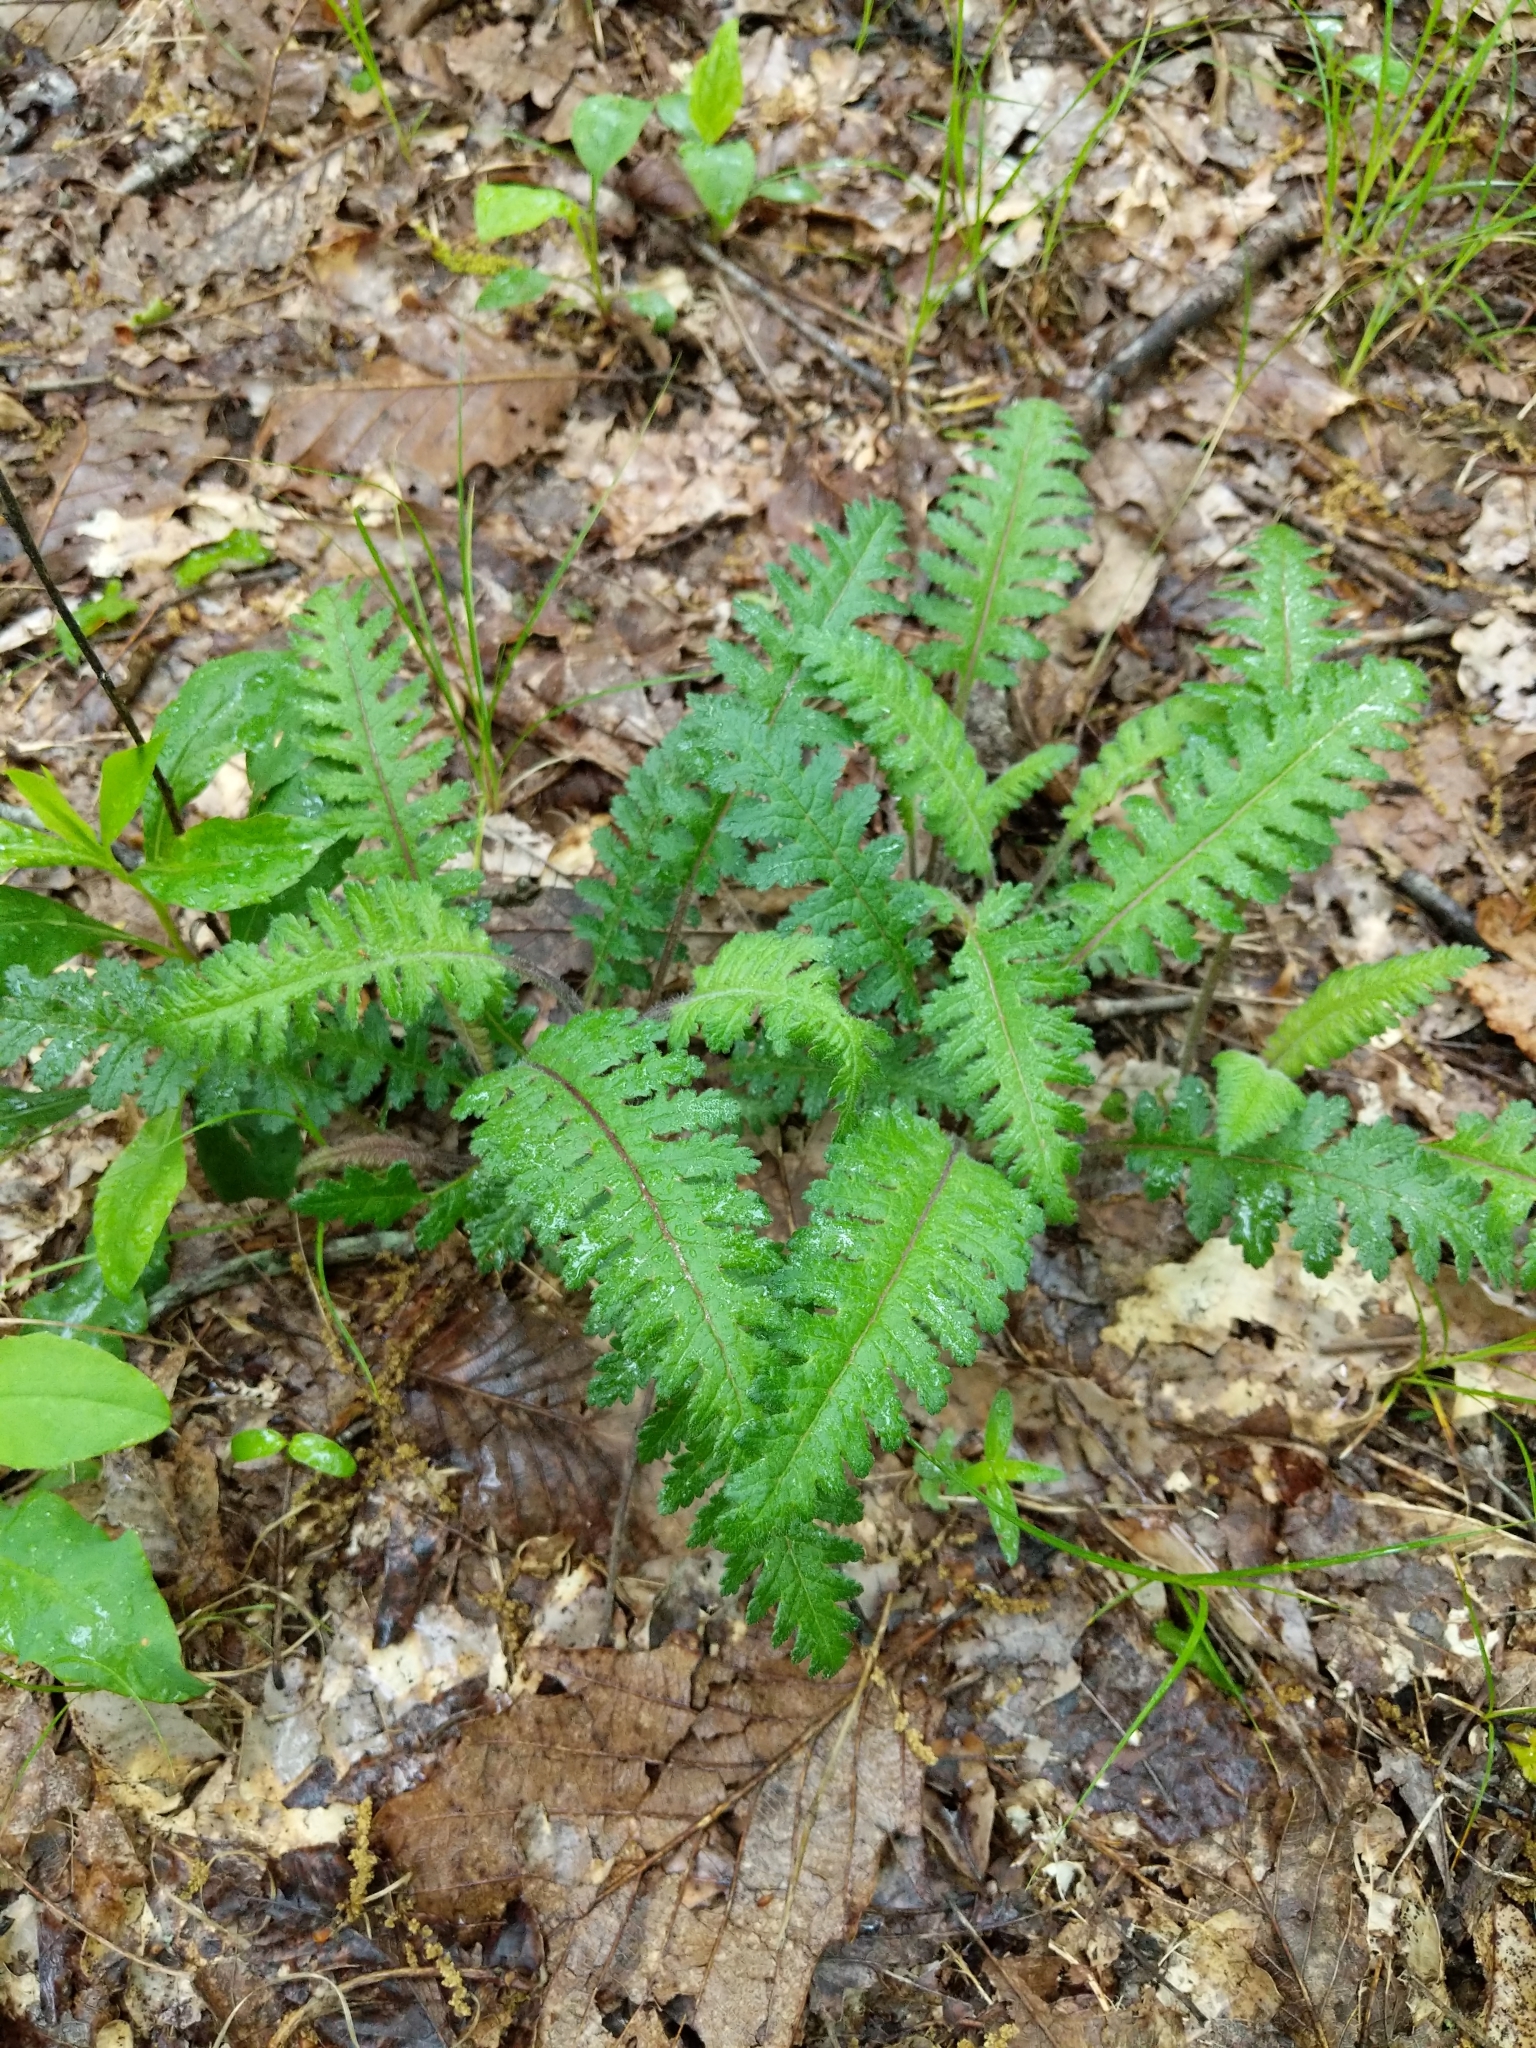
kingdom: Plantae
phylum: Tracheophyta
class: Magnoliopsida
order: Lamiales
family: Orobanchaceae
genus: Pedicularis
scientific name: Pedicularis canadensis
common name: Early lousewort
